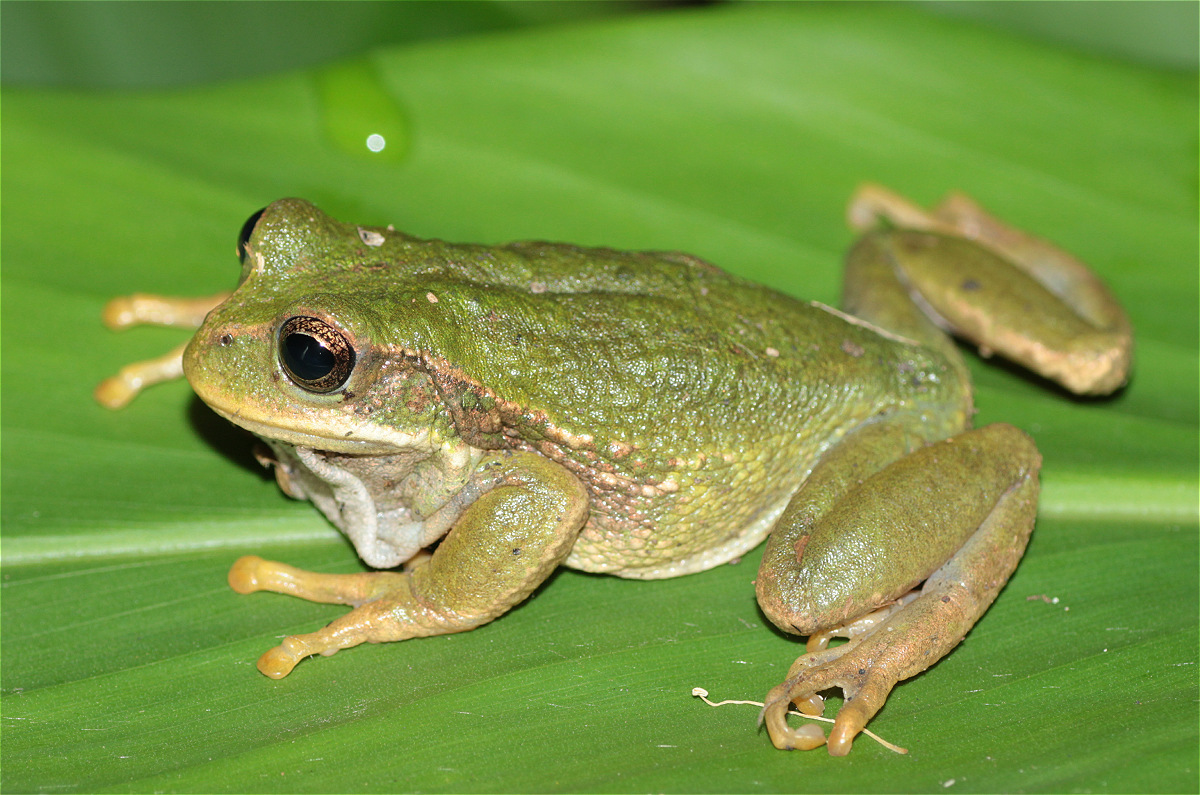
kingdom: Animalia
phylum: Chordata
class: Amphibia
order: Anura
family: Hemiphractidae
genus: Gastrotheca
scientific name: Gastrotheca cuencana
